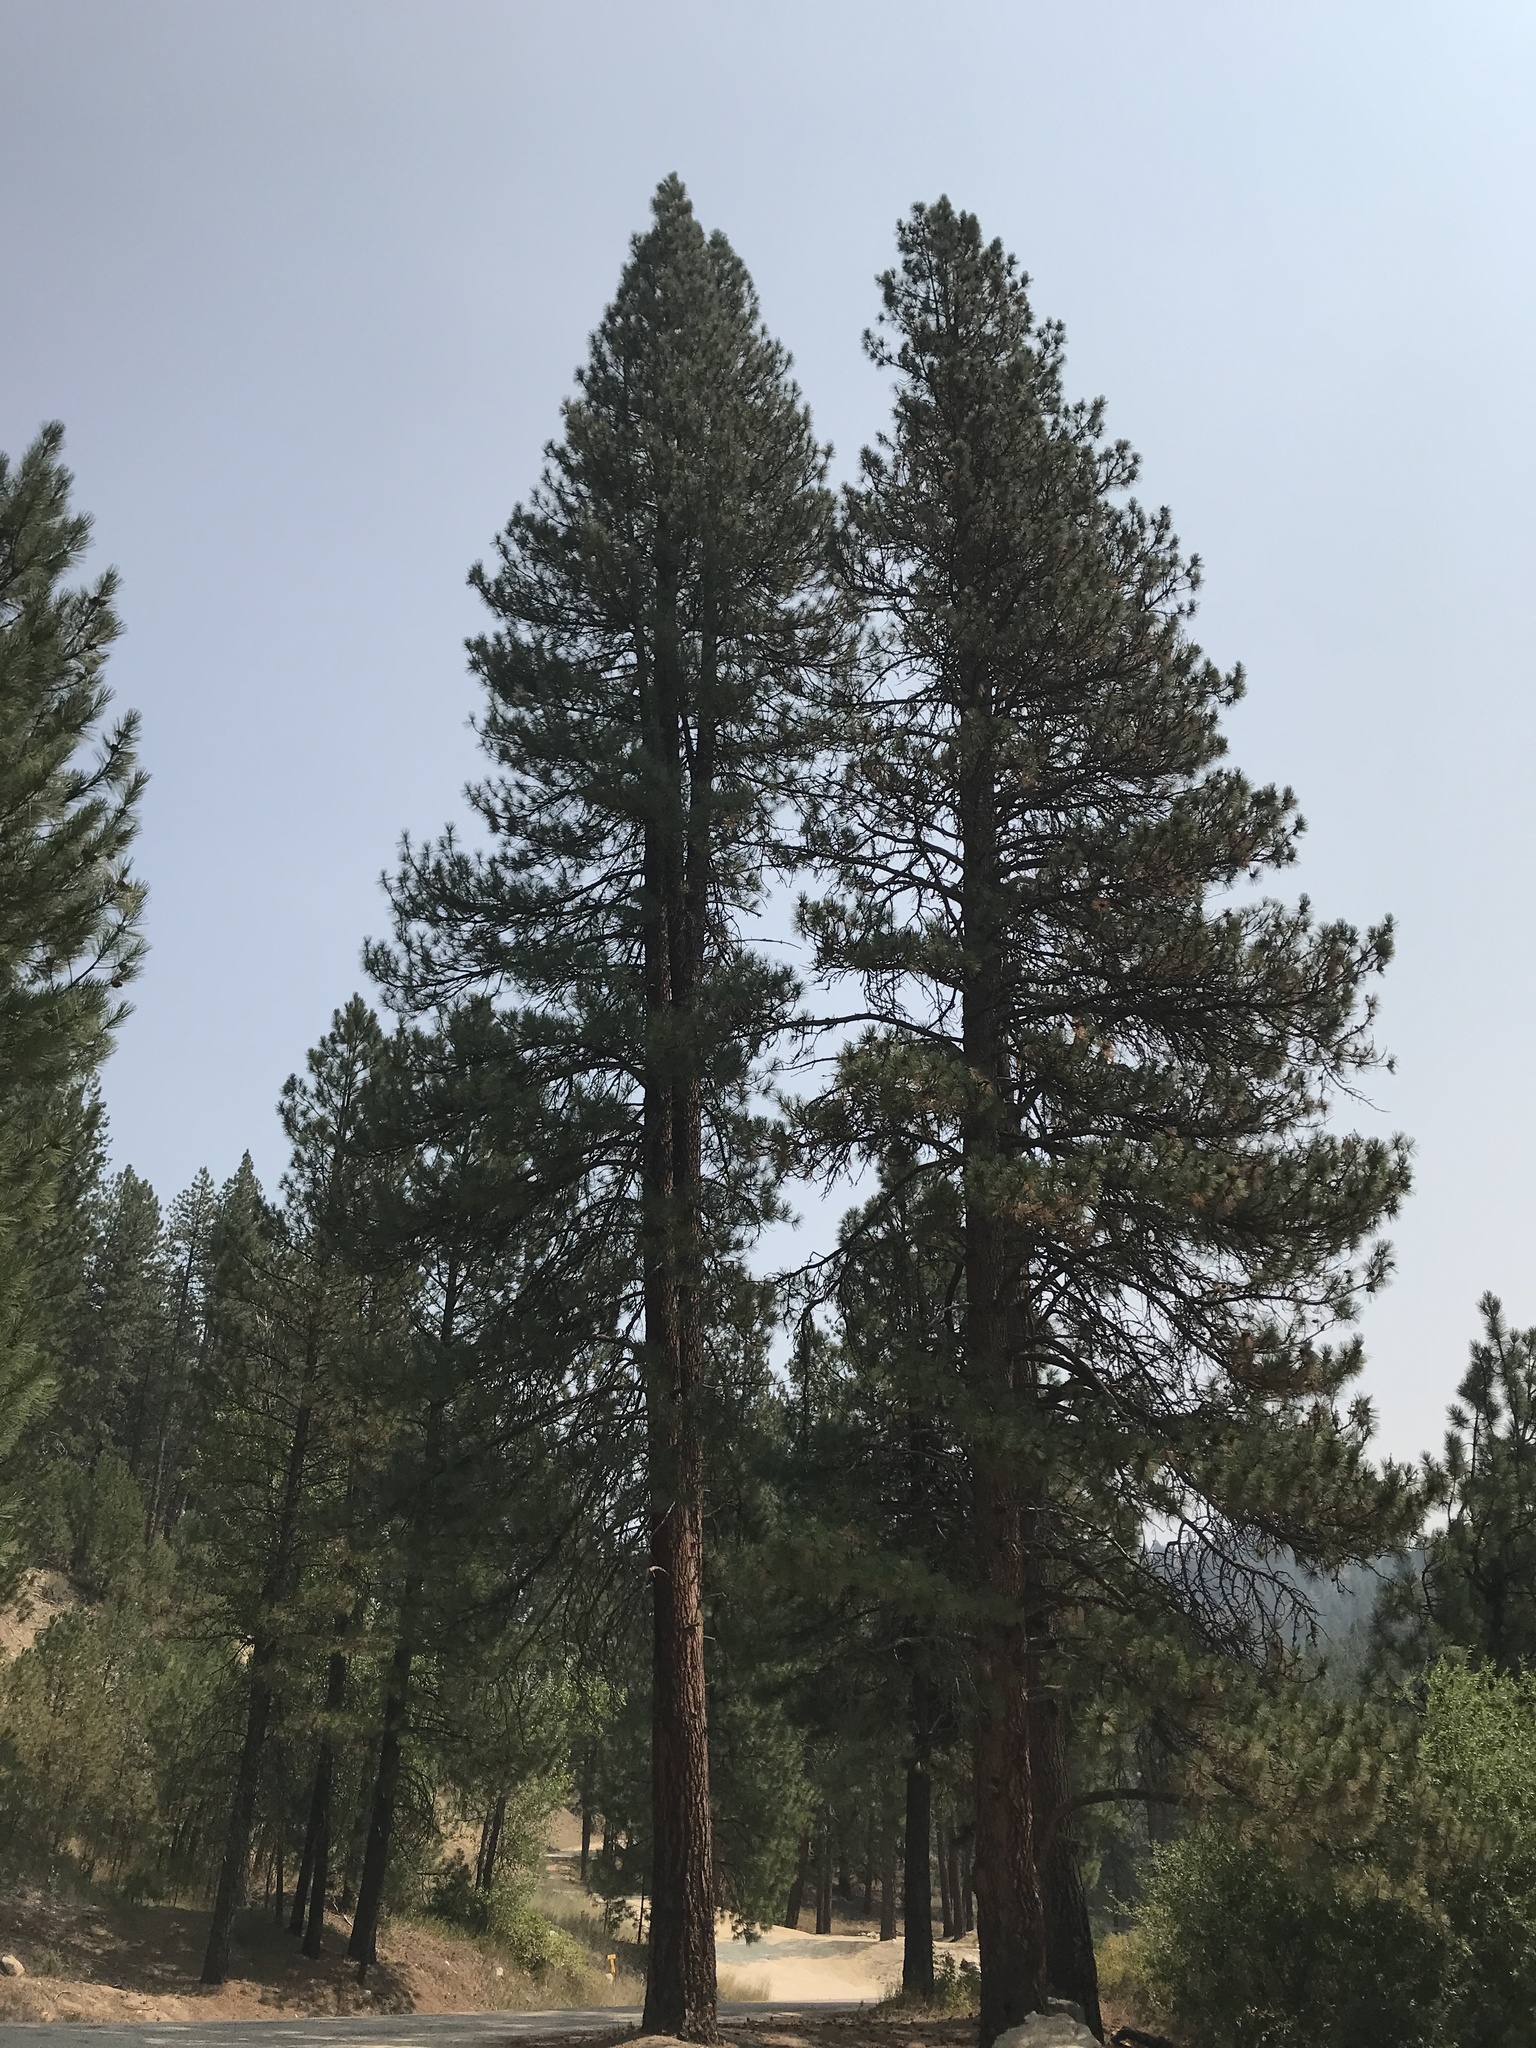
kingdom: Plantae
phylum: Tracheophyta
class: Pinopsida
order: Pinales
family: Pinaceae
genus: Pinus
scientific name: Pinus ponderosa
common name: Western yellow-pine
